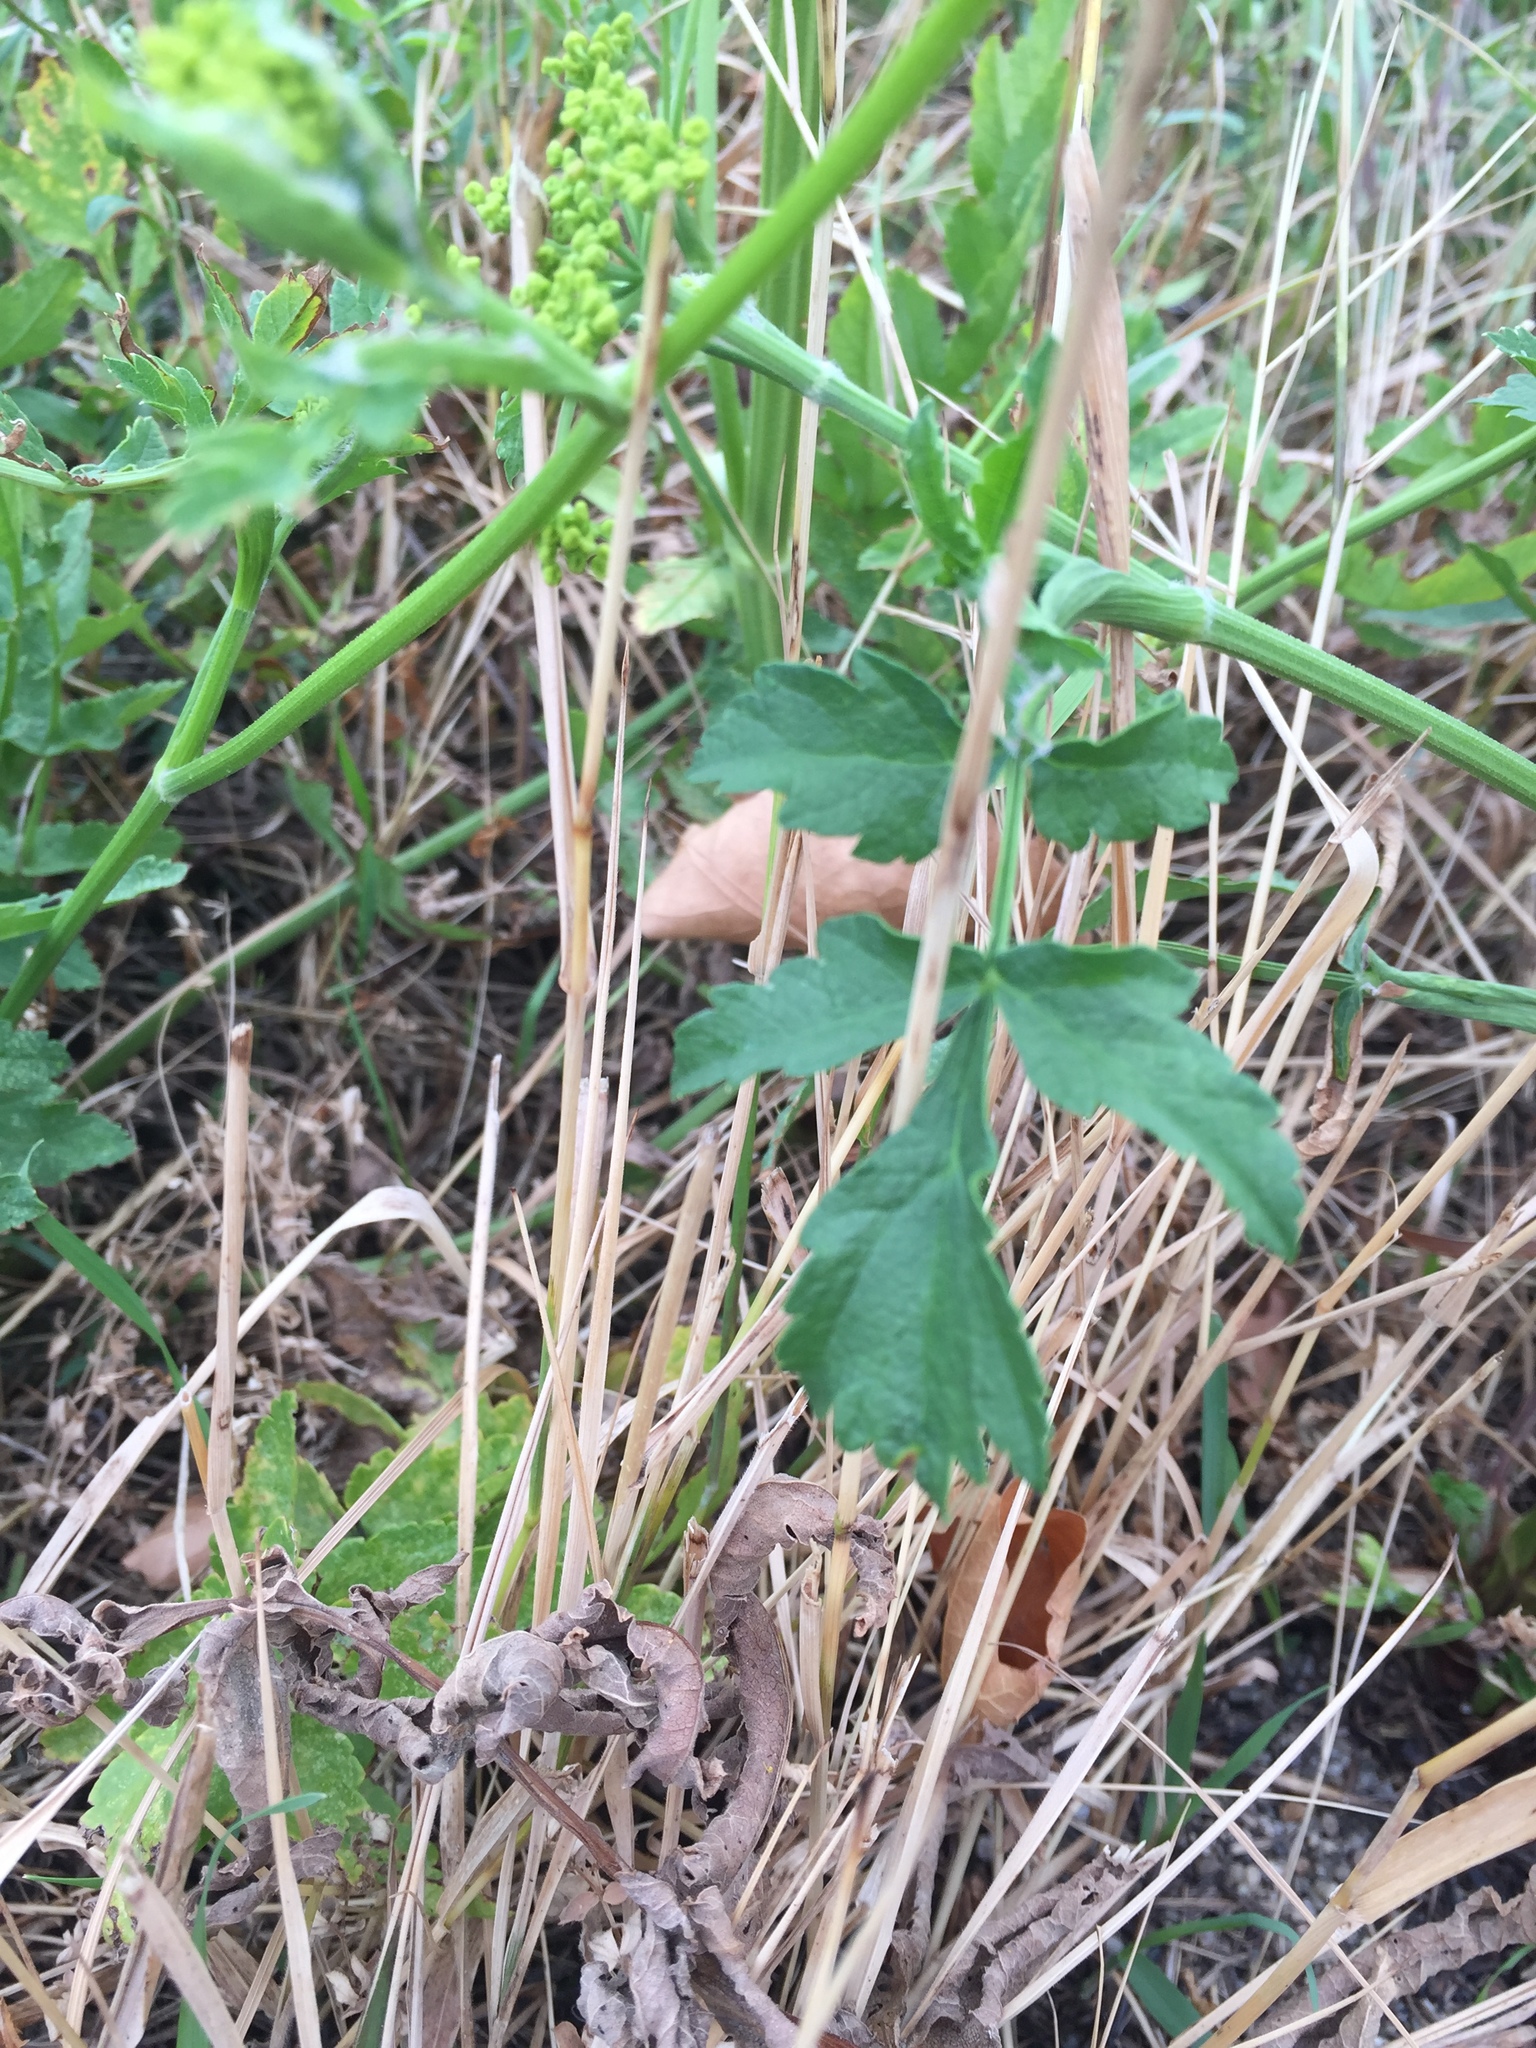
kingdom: Plantae
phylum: Tracheophyta
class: Magnoliopsida
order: Apiales
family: Apiaceae
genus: Pastinaca
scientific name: Pastinaca sativa
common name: Wild parsnip
